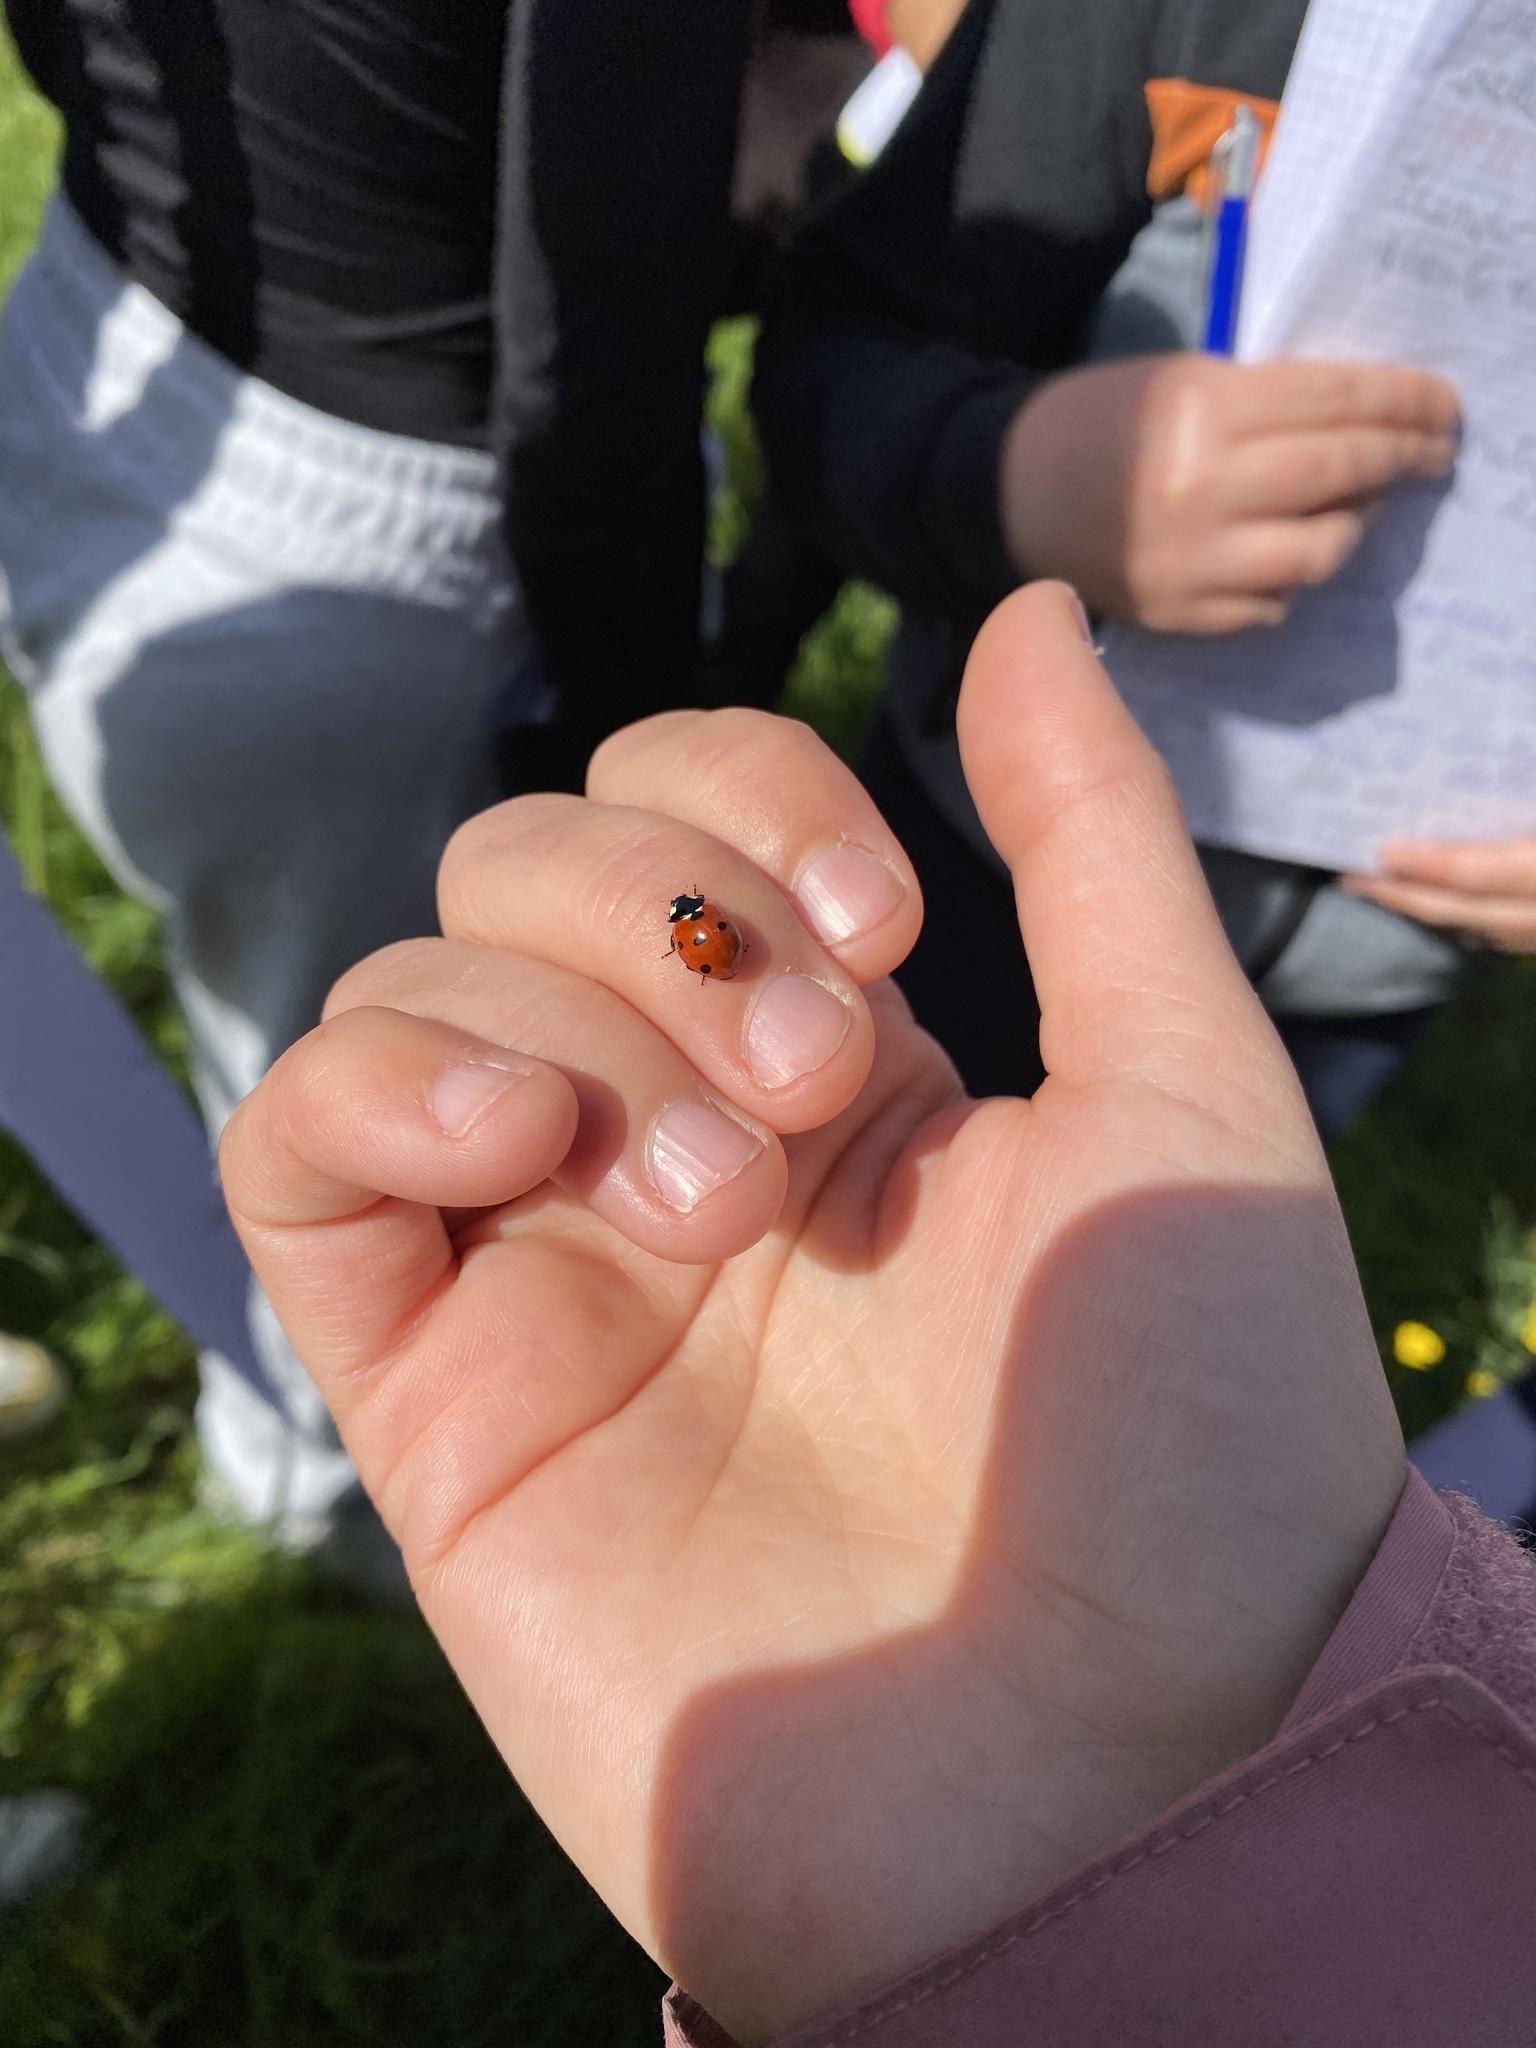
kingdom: Animalia
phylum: Arthropoda
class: Insecta
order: Coleoptera
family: Coccinellidae
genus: Coccinella
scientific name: Coccinella septempunctata
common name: Sevenspotted lady beetle
